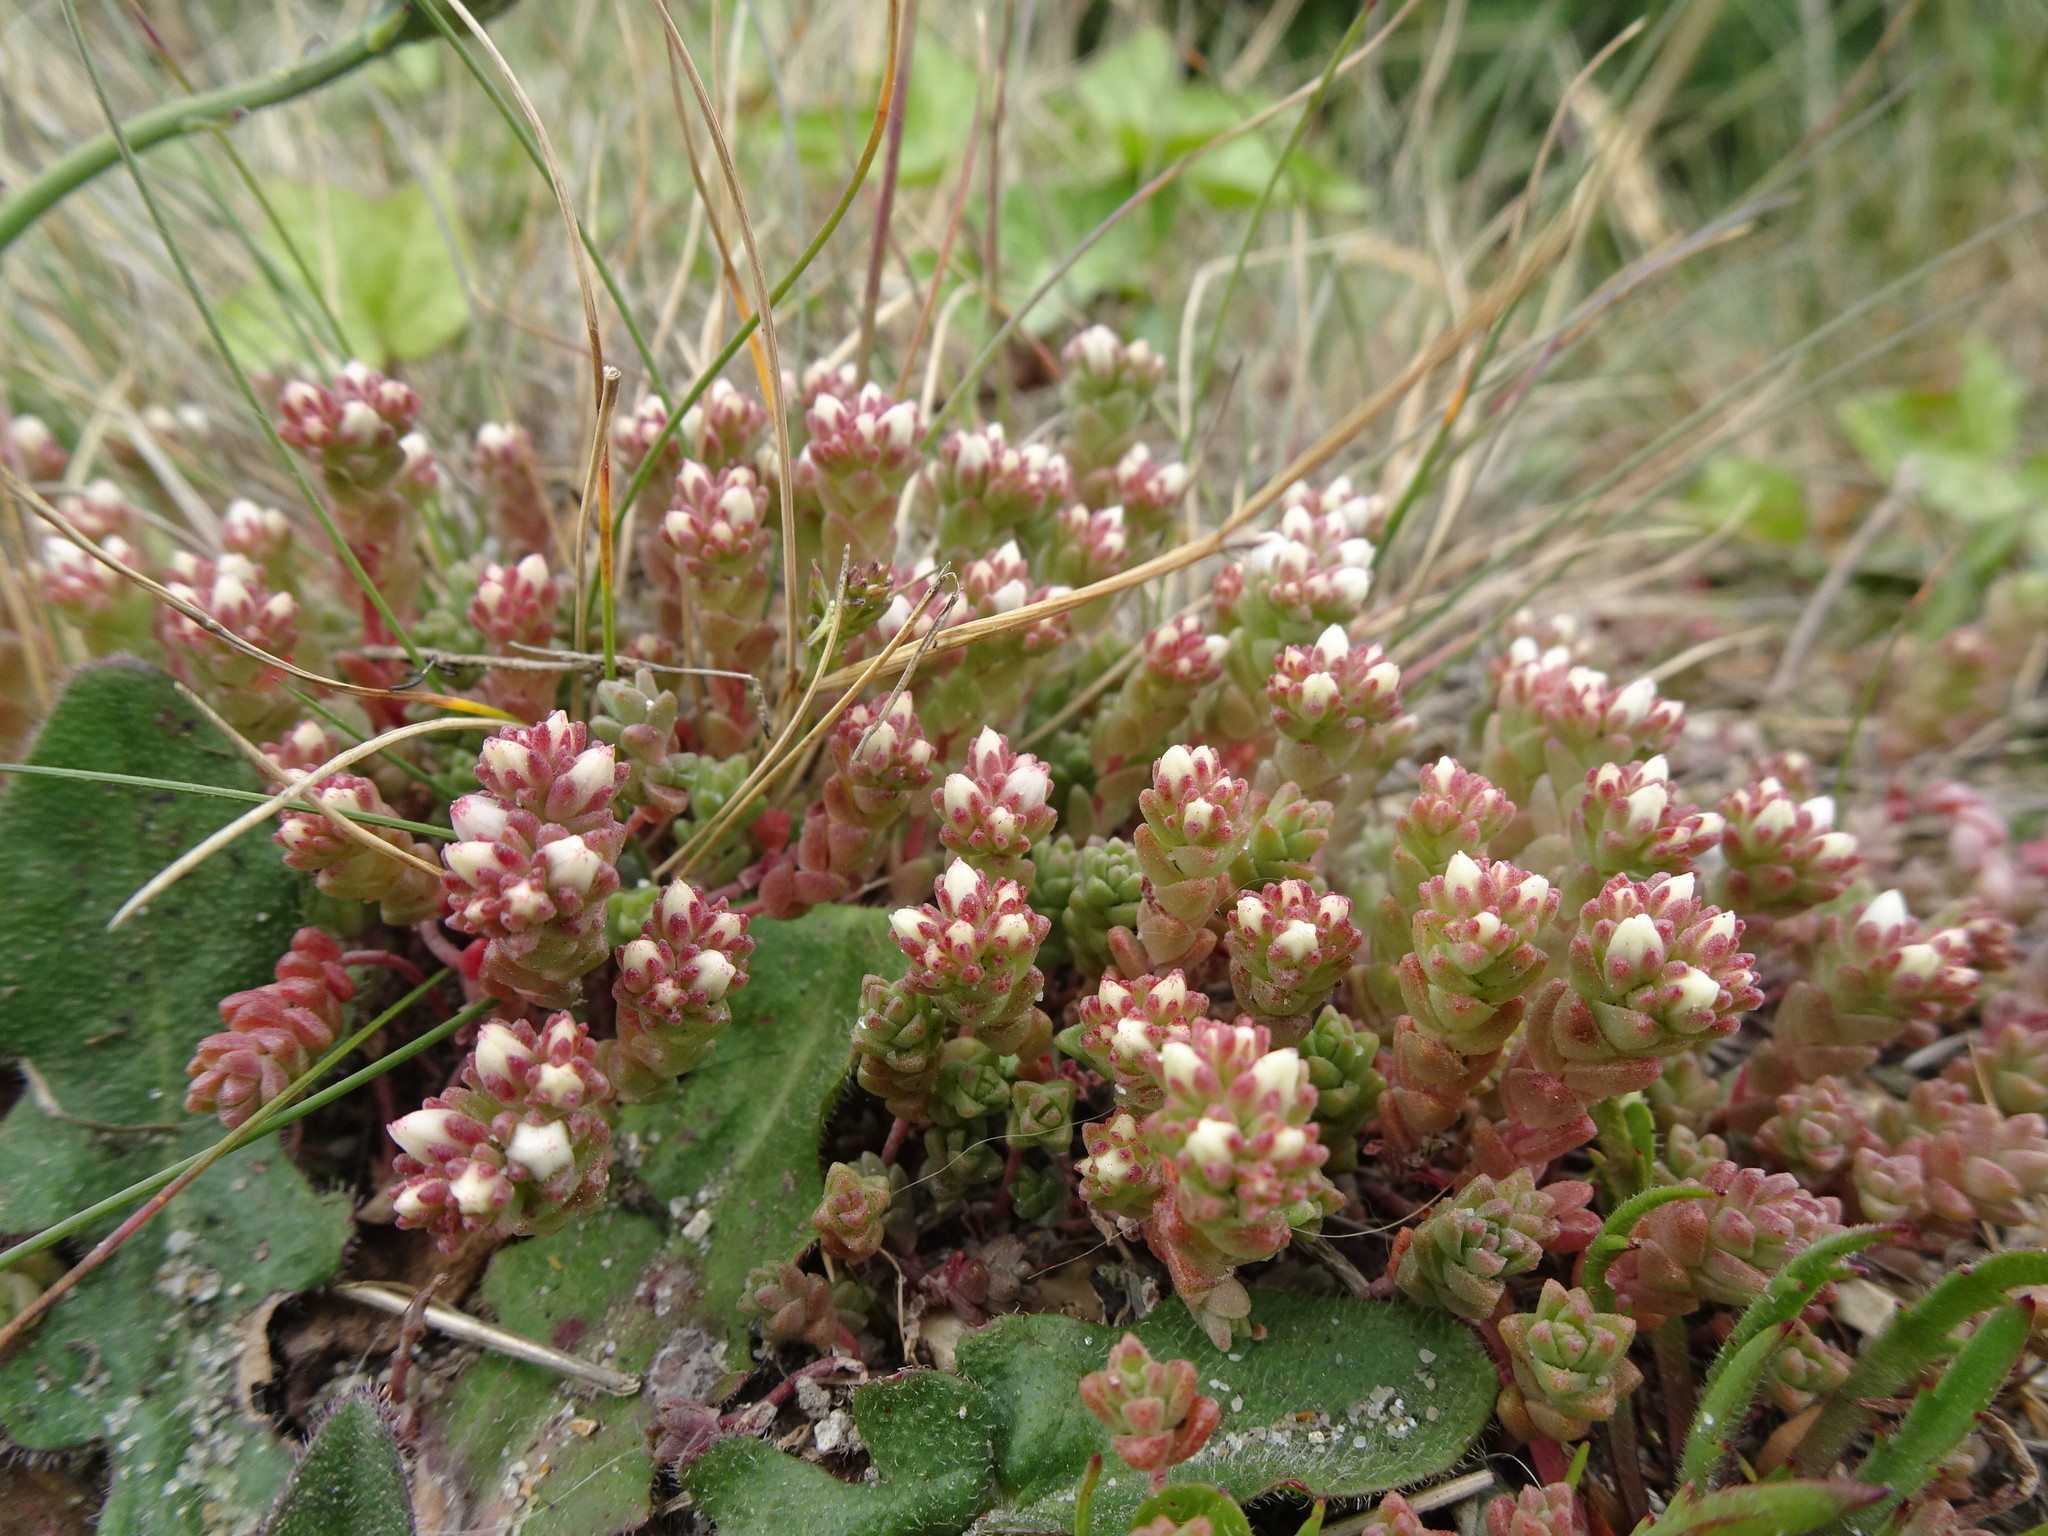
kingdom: Plantae
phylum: Tracheophyta
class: Magnoliopsida
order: Saxifragales
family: Crassulaceae
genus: Sedum
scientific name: Sedum anglicum
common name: English stonecrop
